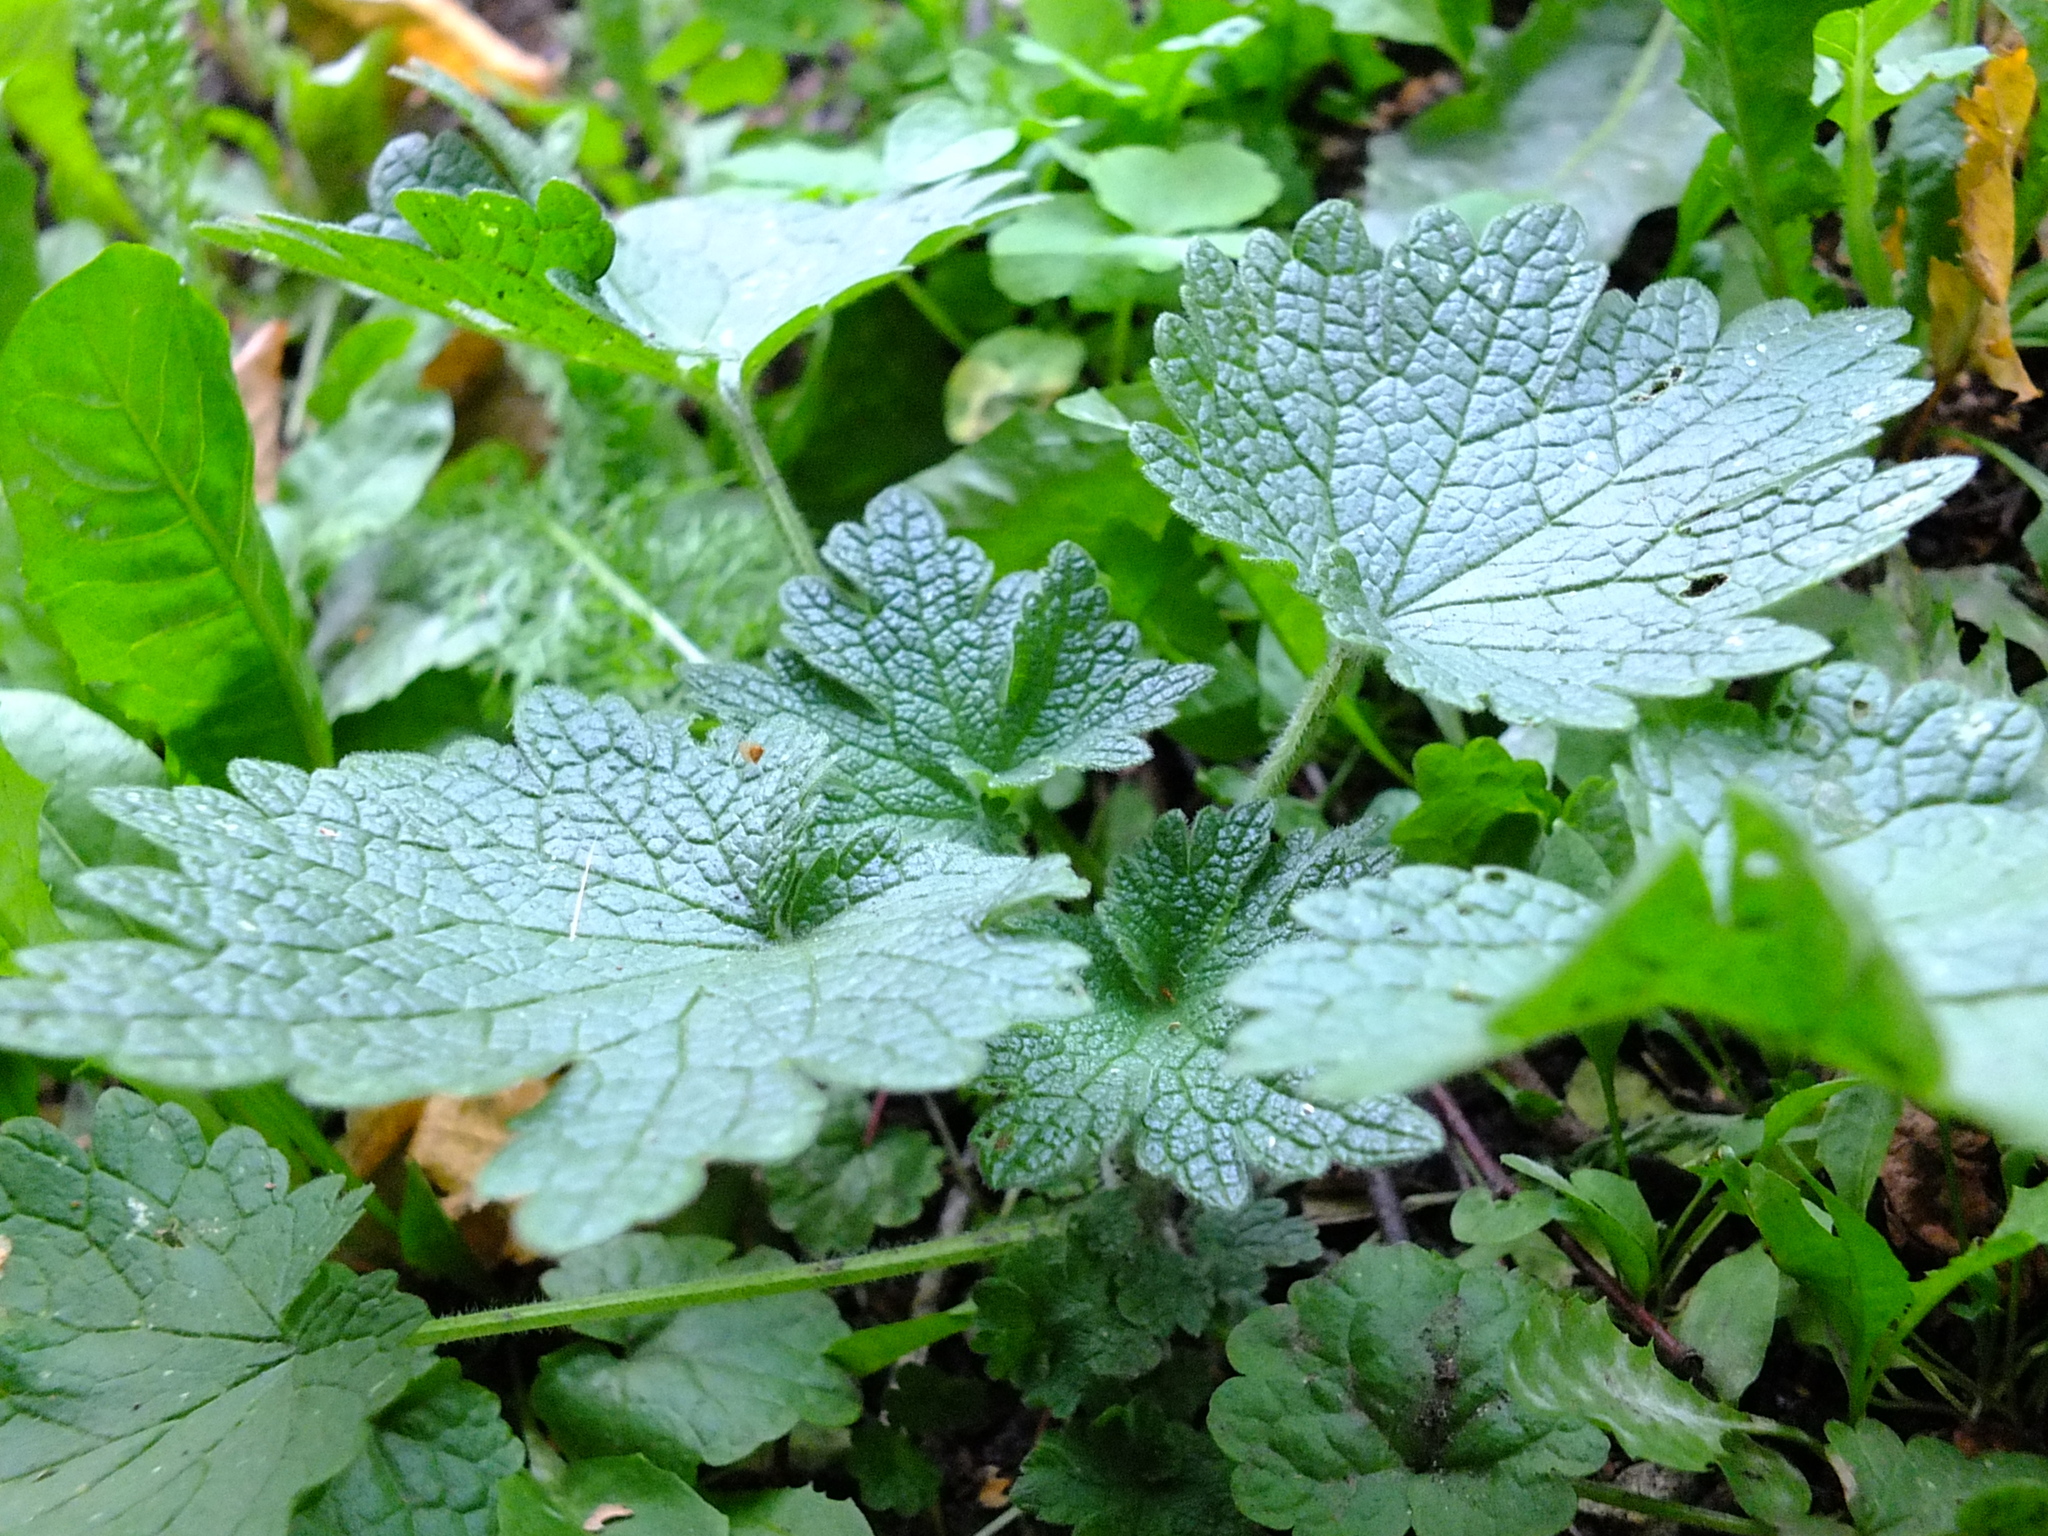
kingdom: Plantae
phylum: Tracheophyta
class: Magnoliopsida
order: Lamiales
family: Lamiaceae
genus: Leonurus
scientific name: Leonurus quinquelobatus
